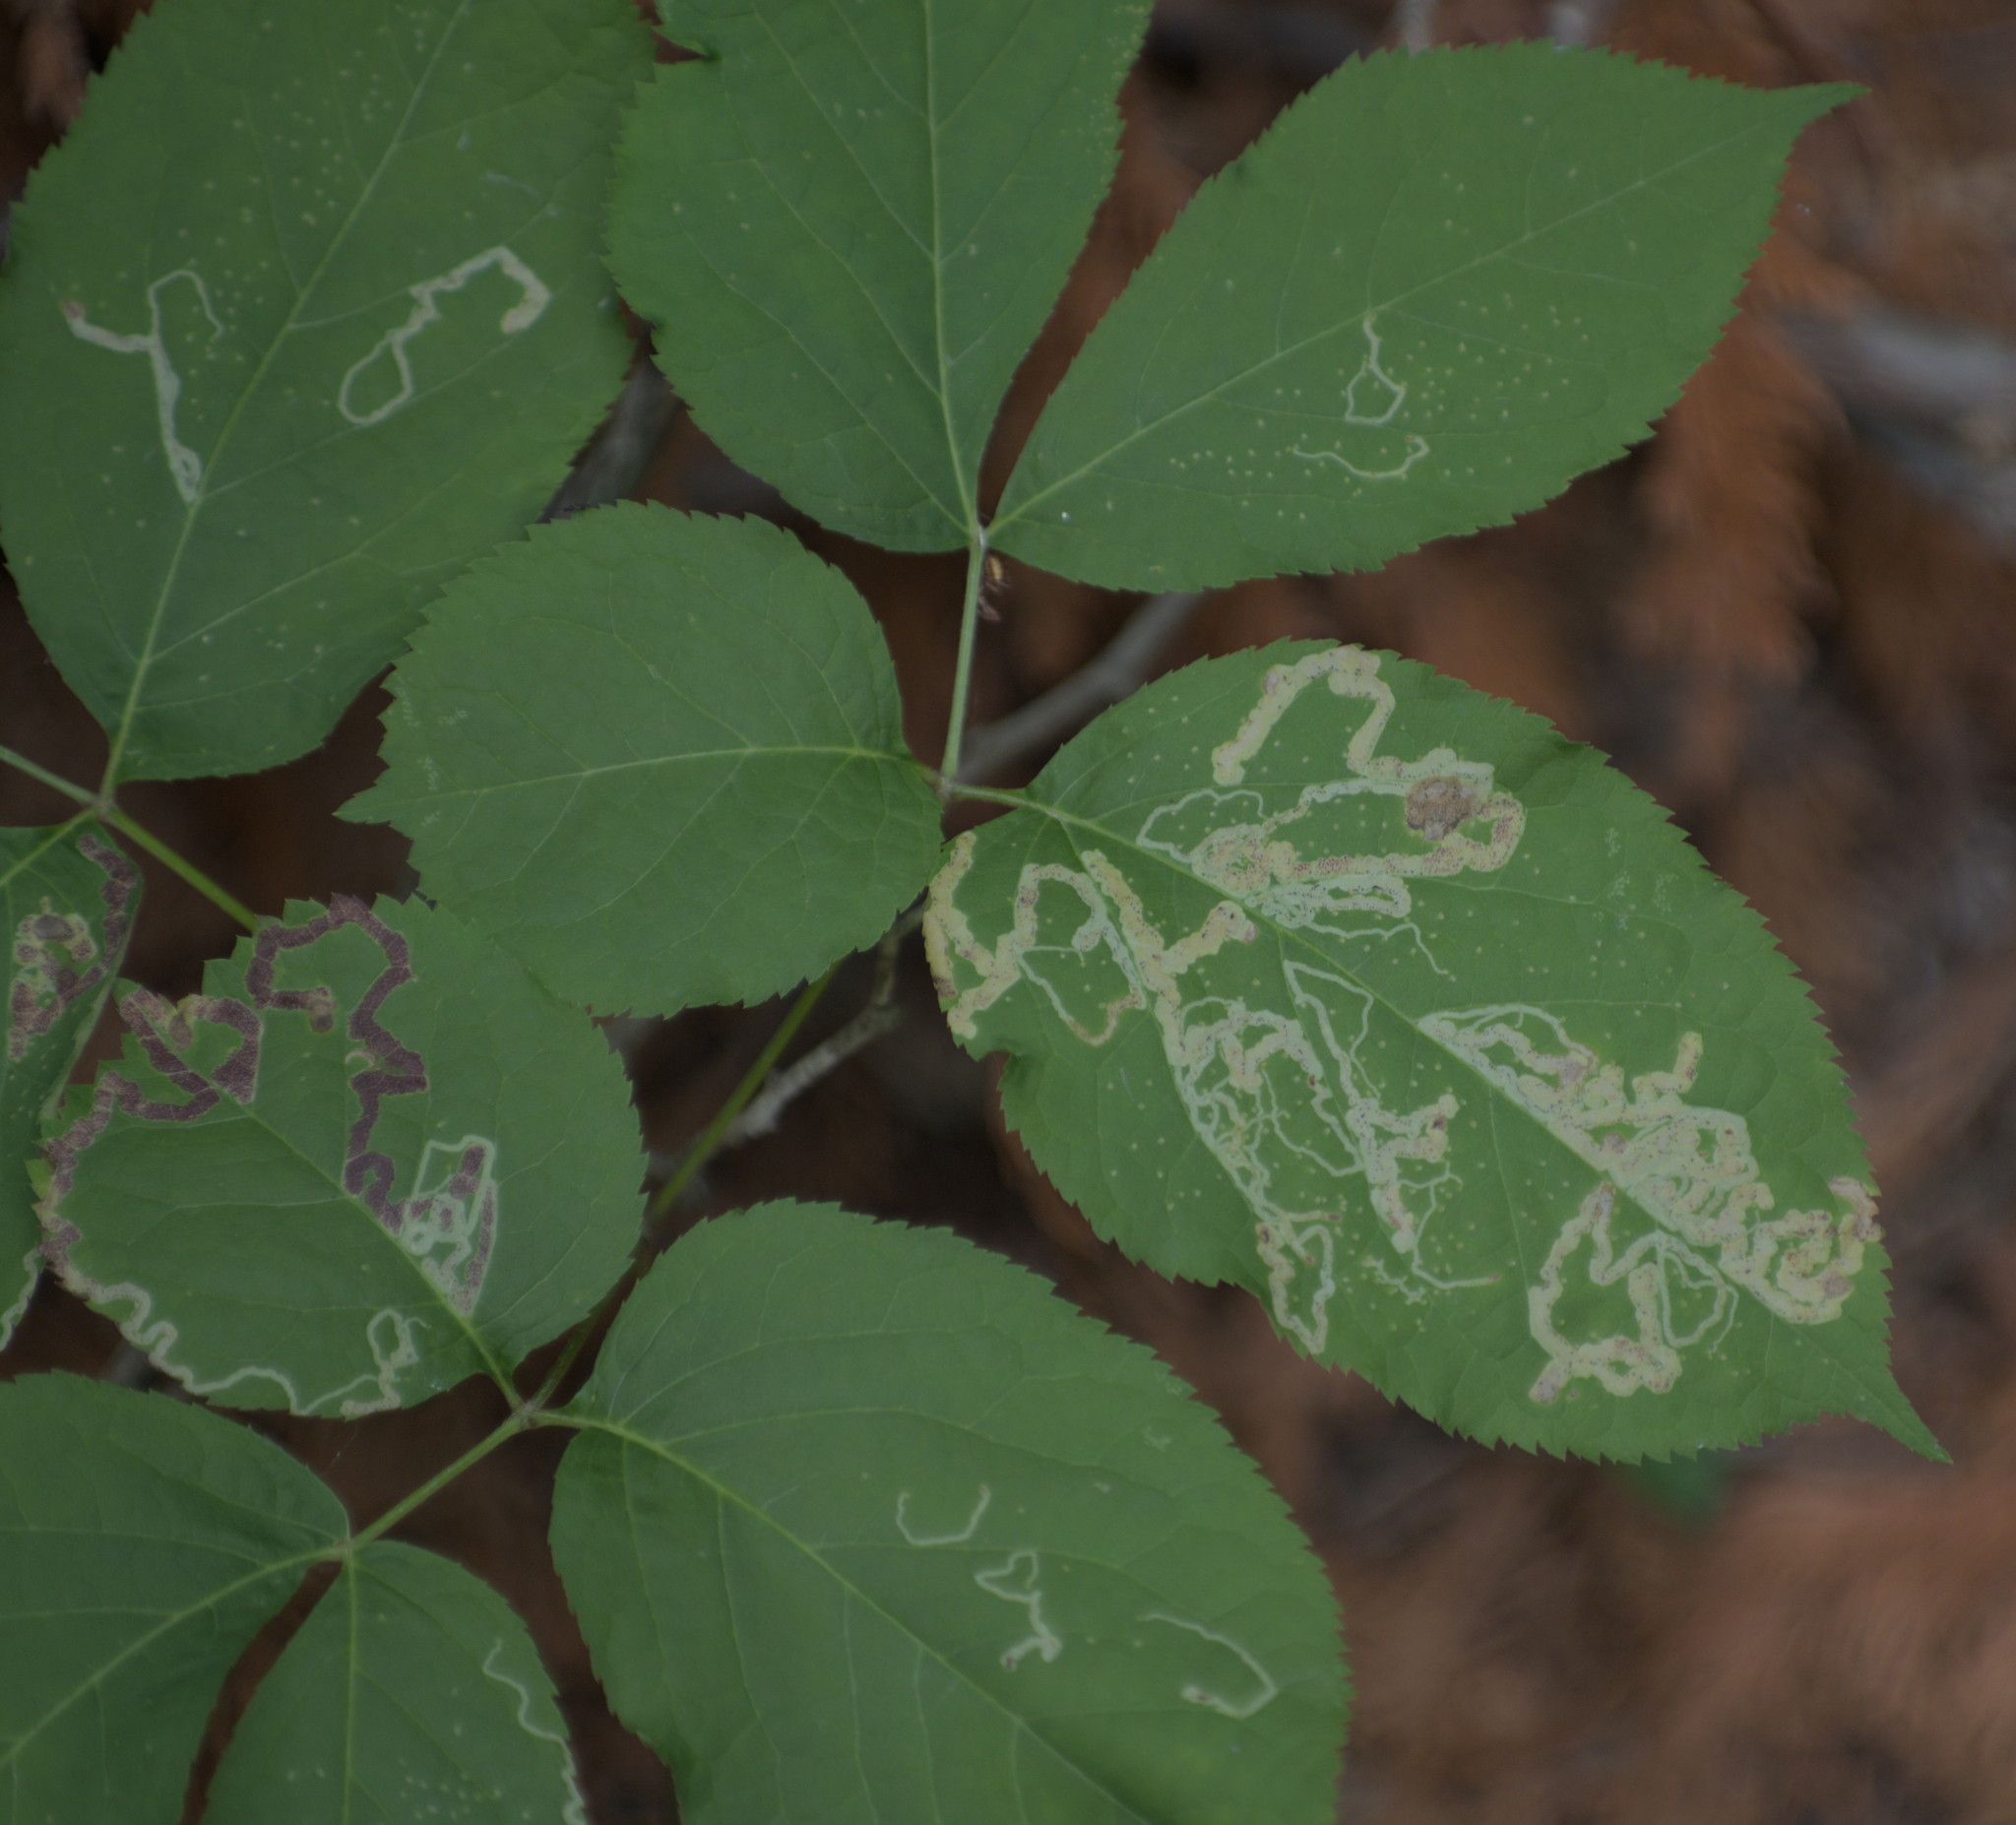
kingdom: Animalia
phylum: Arthropoda
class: Insecta
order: Diptera
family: Agromyzidae
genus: Phytomyza
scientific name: Phytomyza aralivora
